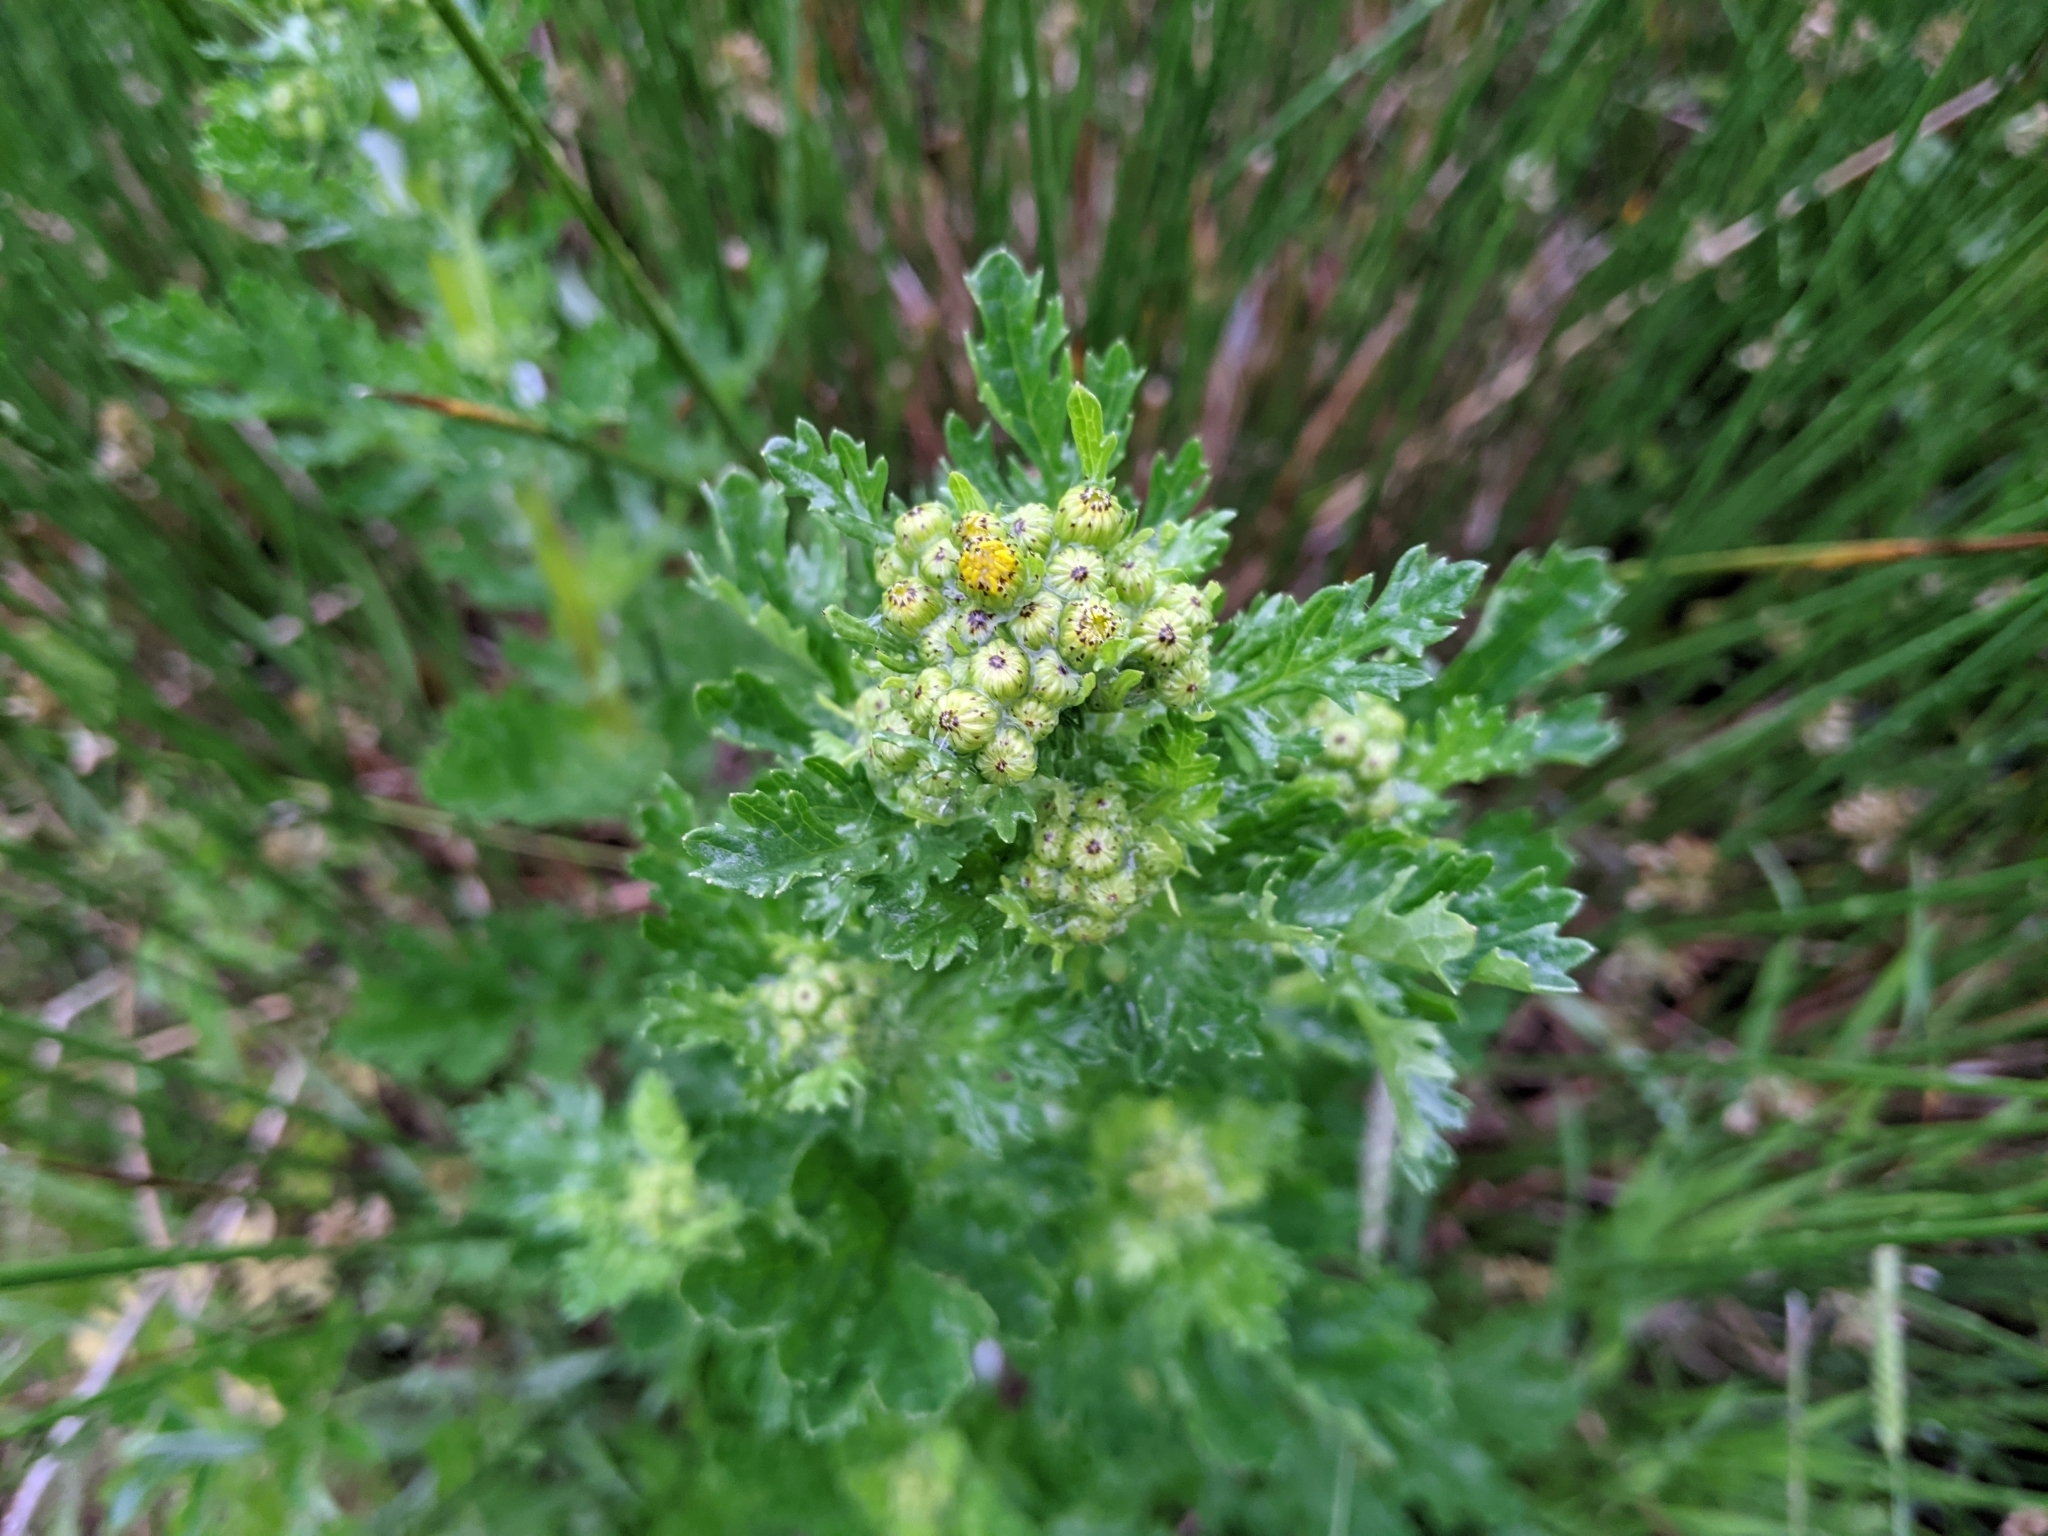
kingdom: Plantae
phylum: Tracheophyta
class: Magnoliopsida
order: Asterales
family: Asteraceae
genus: Jacobaea
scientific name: Jacobaea vulgaris
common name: Stinking willie
